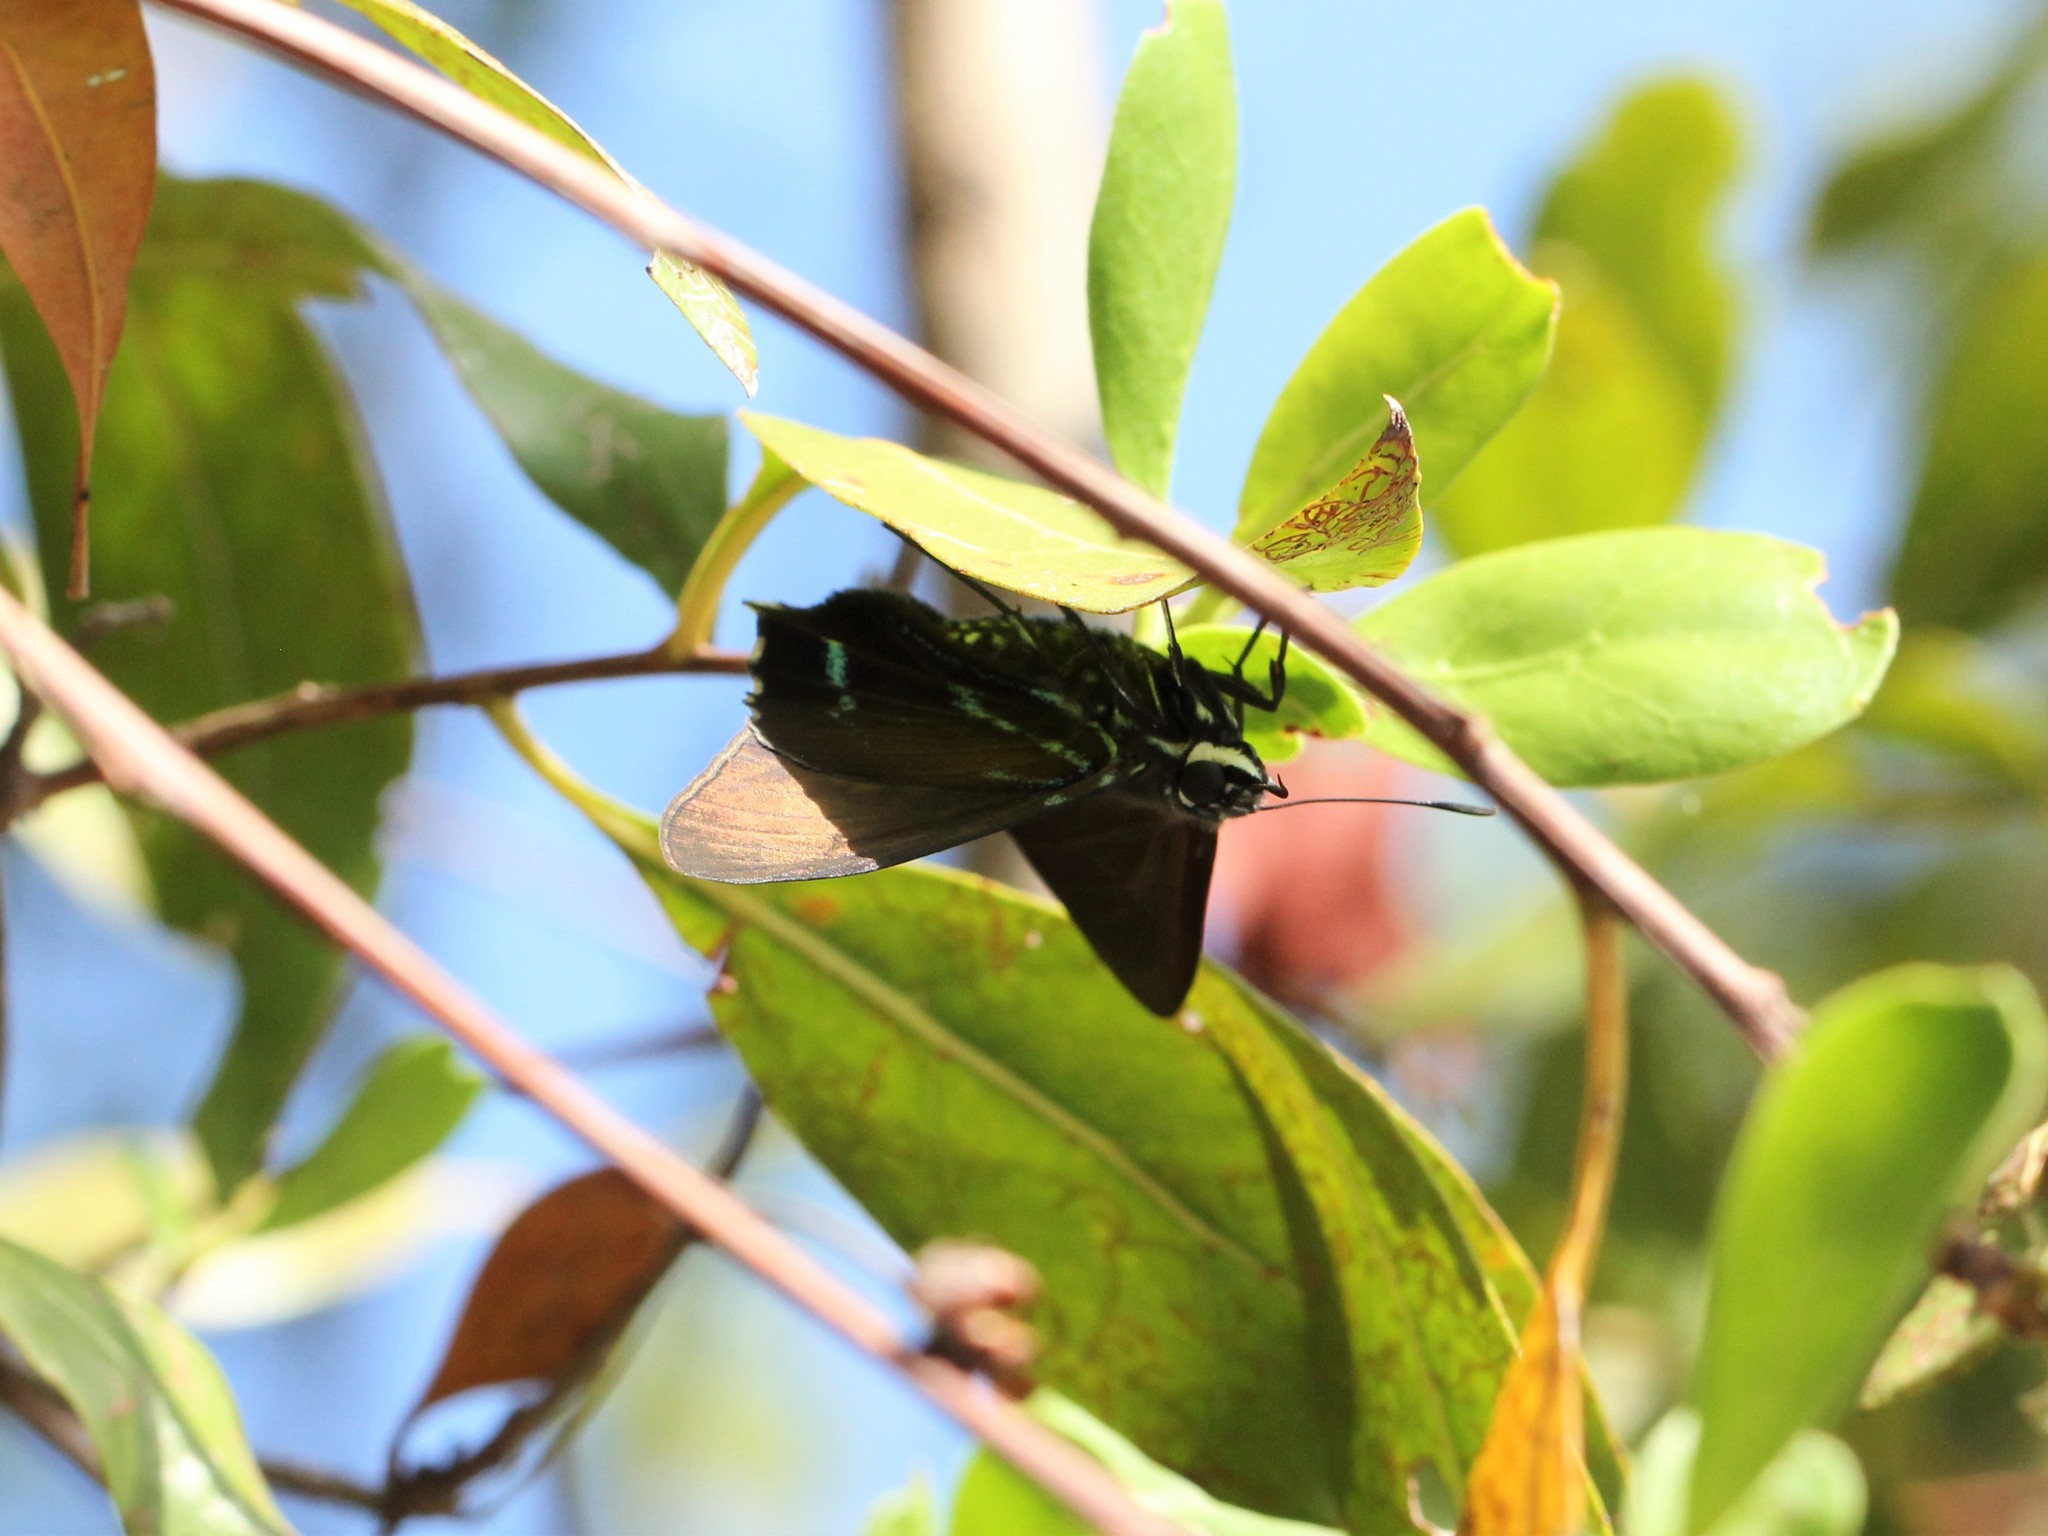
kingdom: Animalia
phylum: Arthropoda
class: Insecta
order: Lepidoptera
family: Hesperiidae
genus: Phocides
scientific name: Phocides pigmalion
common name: Mangrove skipper
